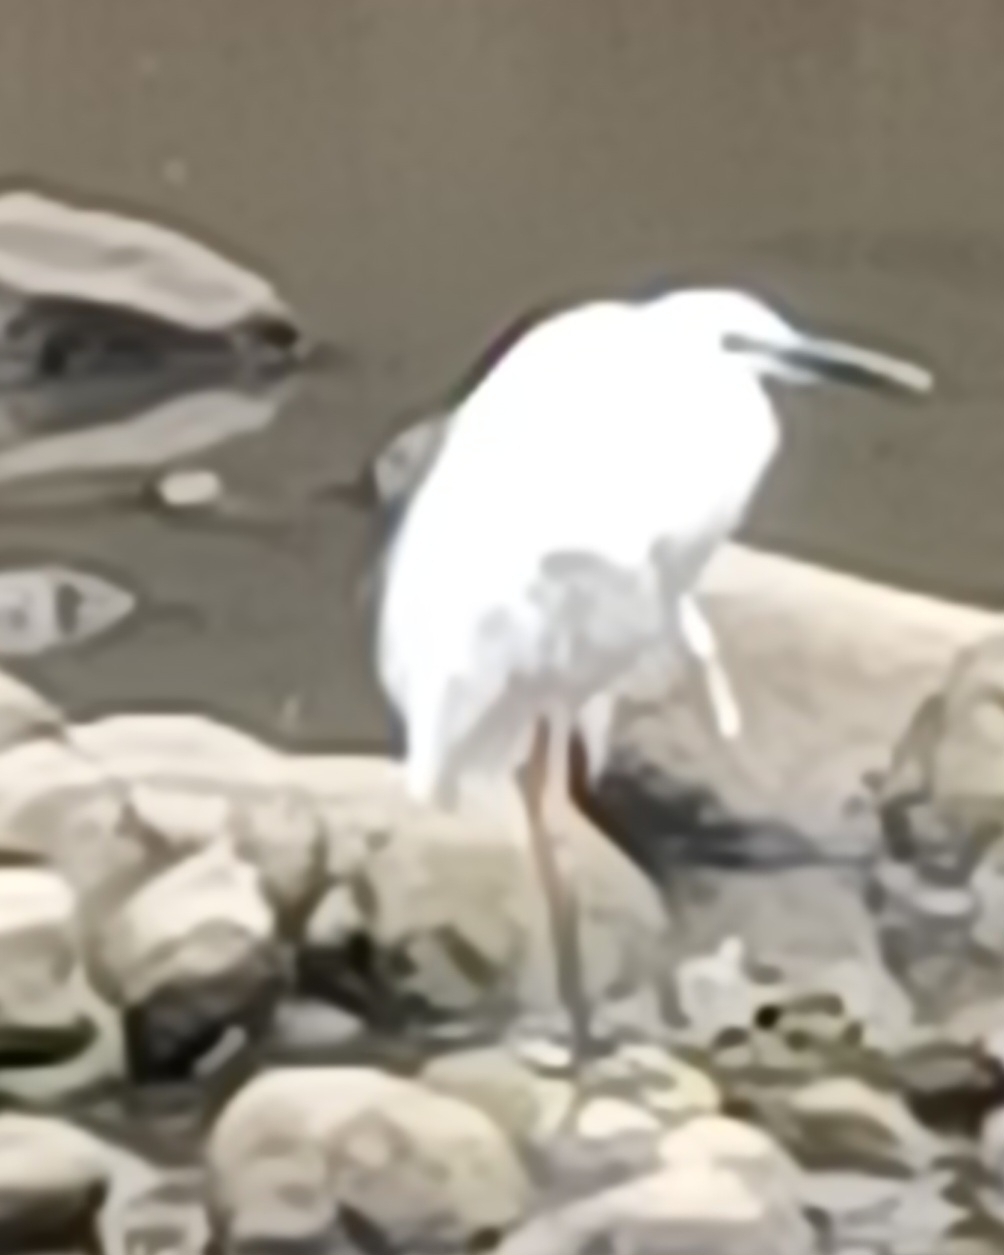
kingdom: Animalia
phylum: Chordata
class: Aves
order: Pelecaniformes
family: Ardeidae
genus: Ardea
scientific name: Ardea alba
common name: Great egret
